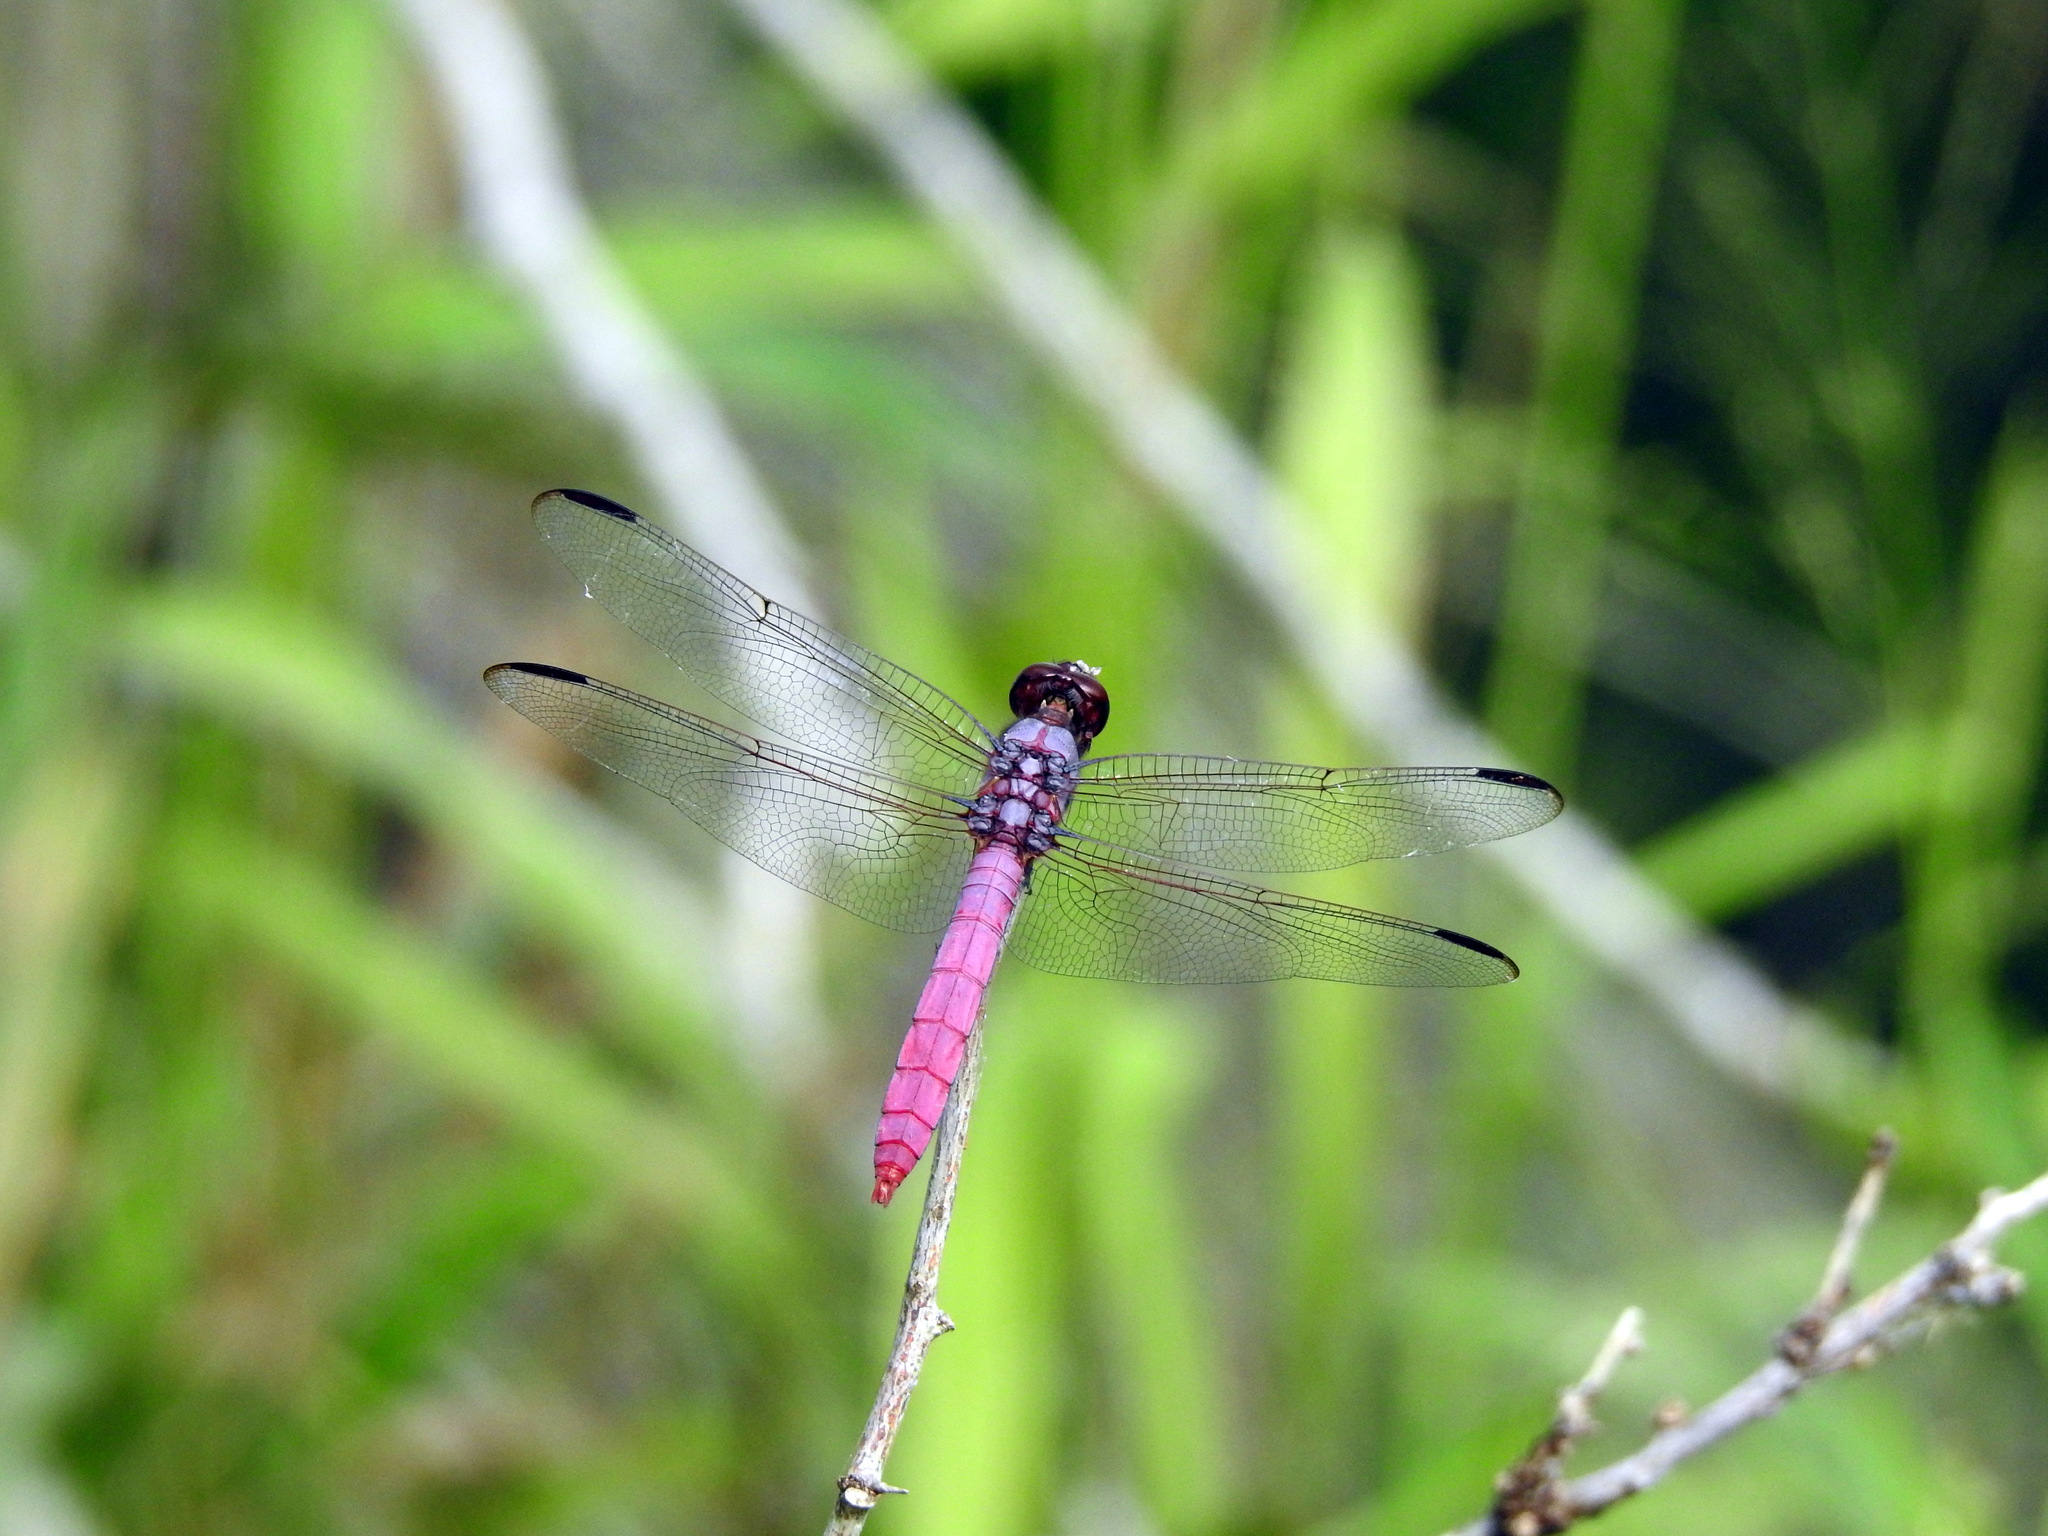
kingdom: Animalia
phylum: Arthropoda
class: Insecta
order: Odonata
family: Libellulidae
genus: Orthemis
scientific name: Orthemis ferruginea
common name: Roseate skimmer
